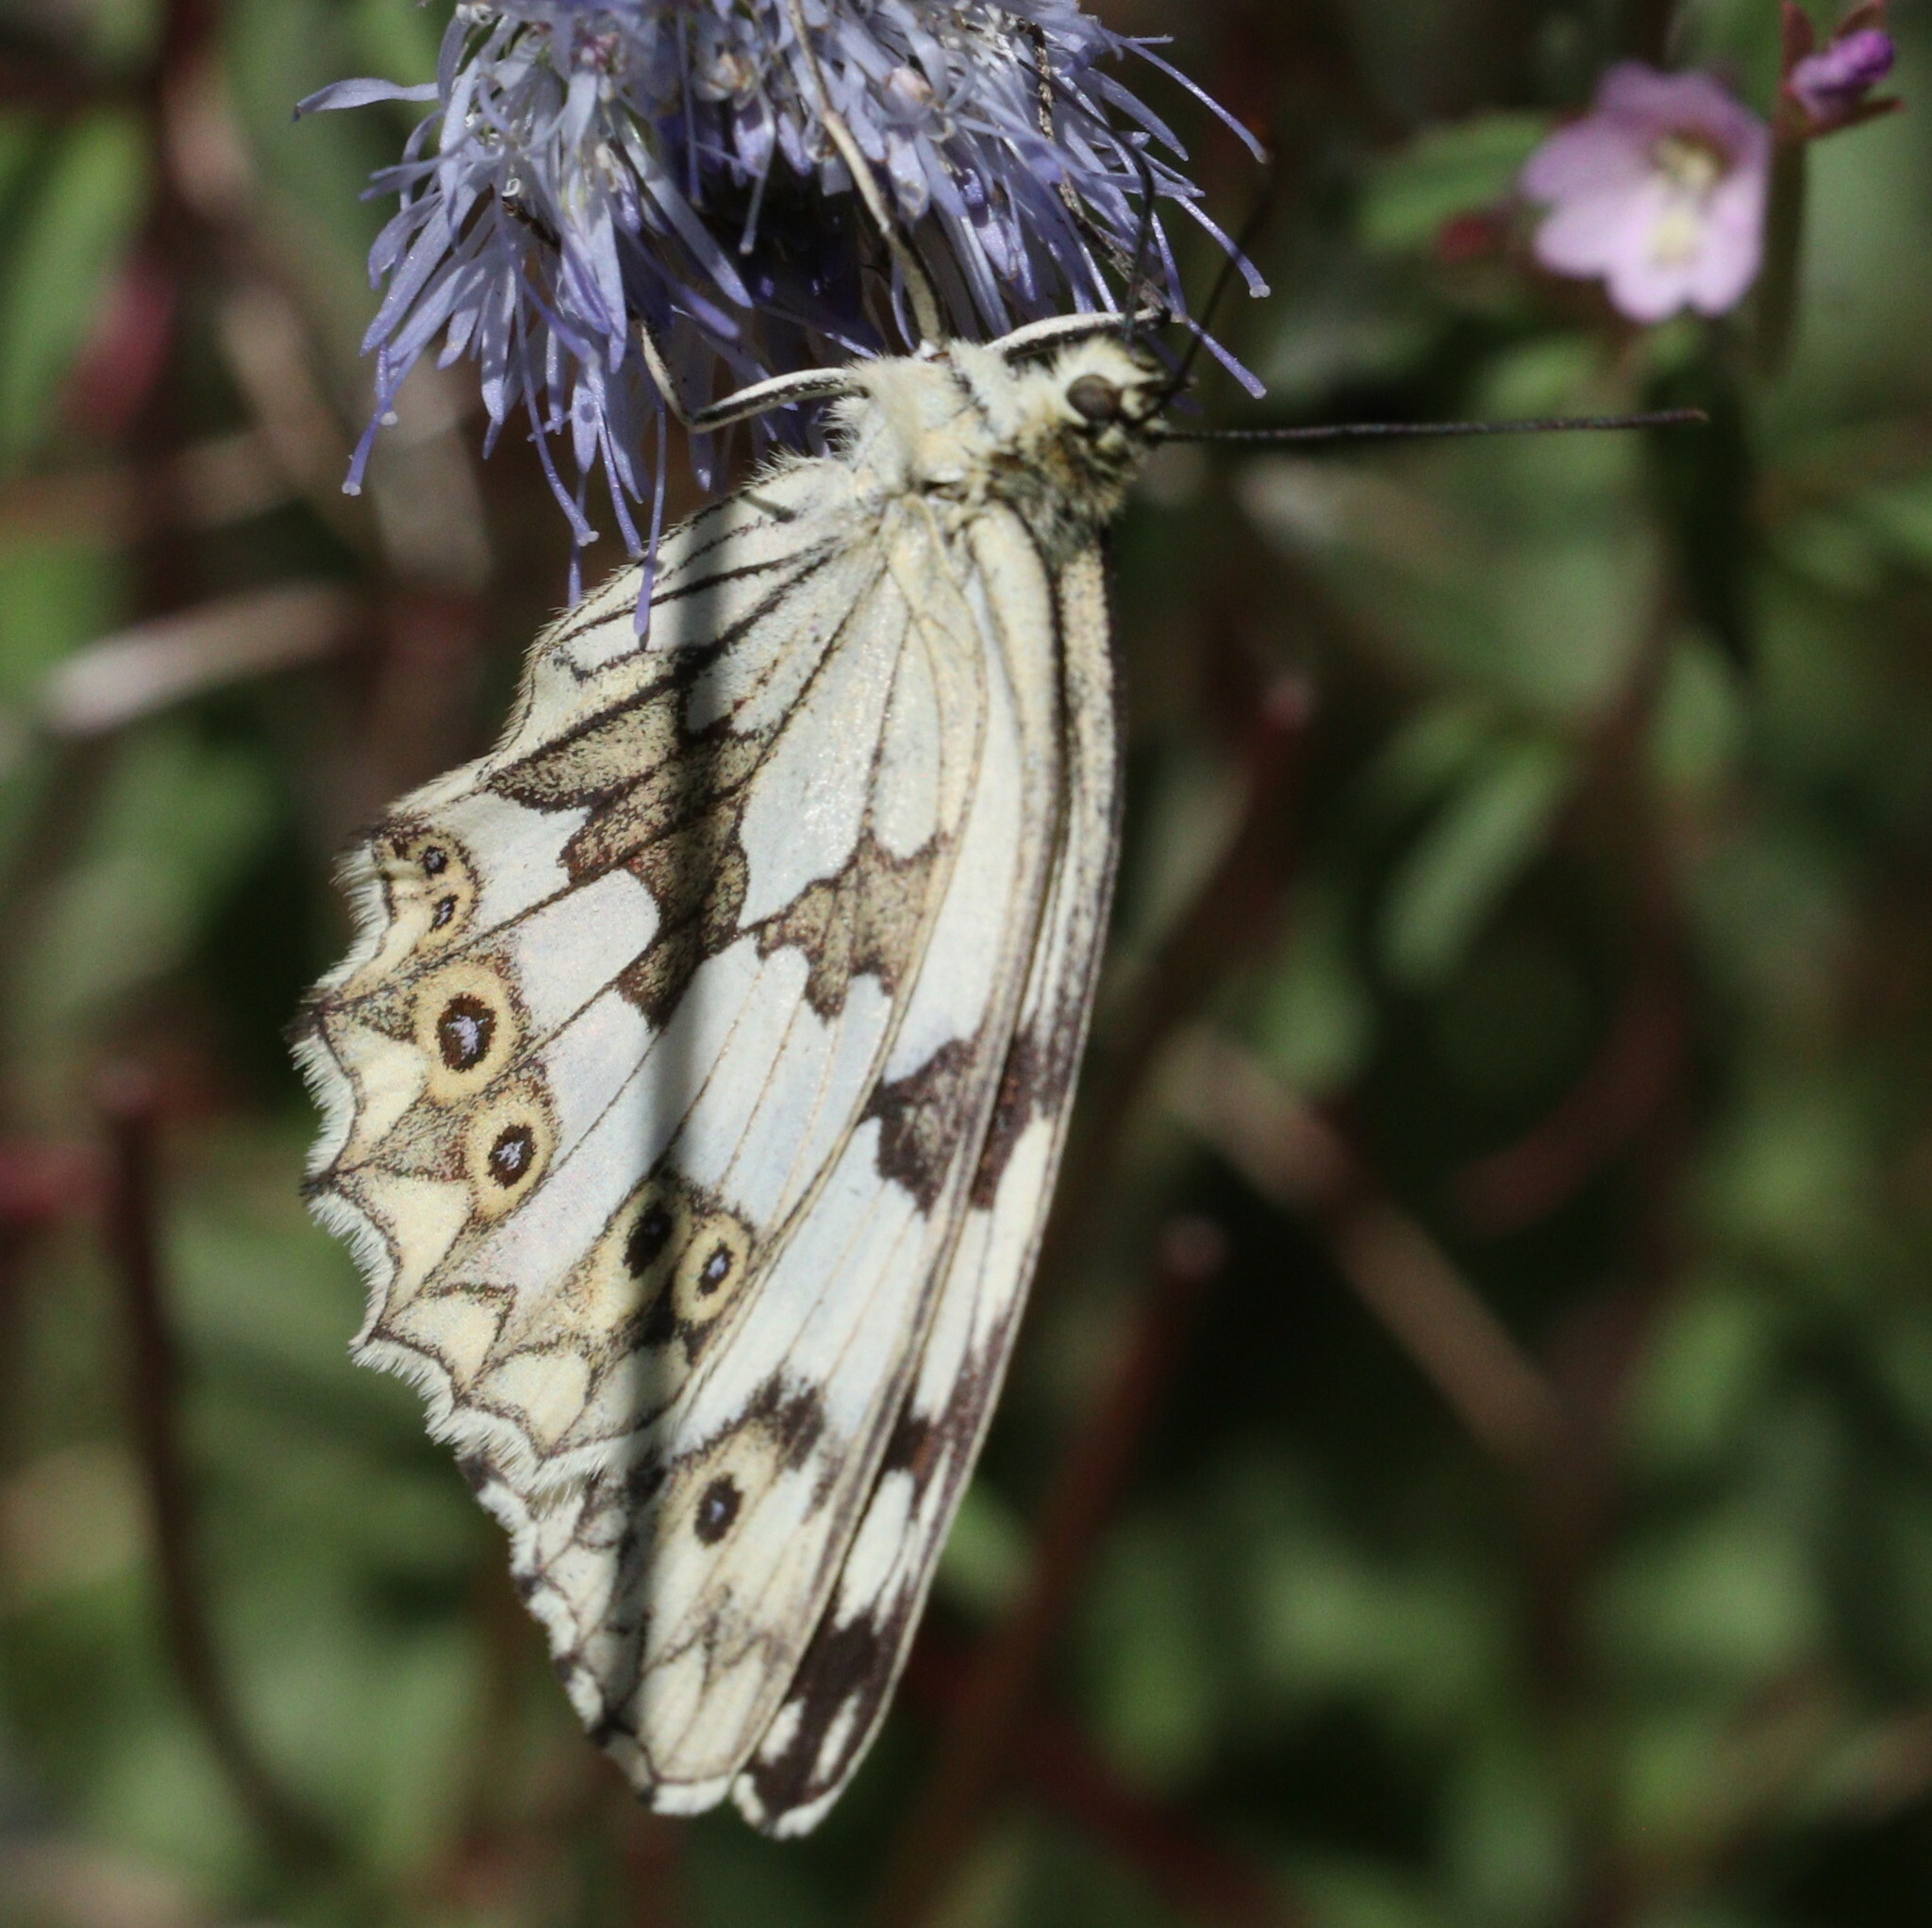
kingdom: Animalia
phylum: Arthropoda
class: Insecta
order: Lepidoptera
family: Nymphalidae
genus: Melanargia
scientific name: Melanargia lachesis
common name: Iberian marbled white
